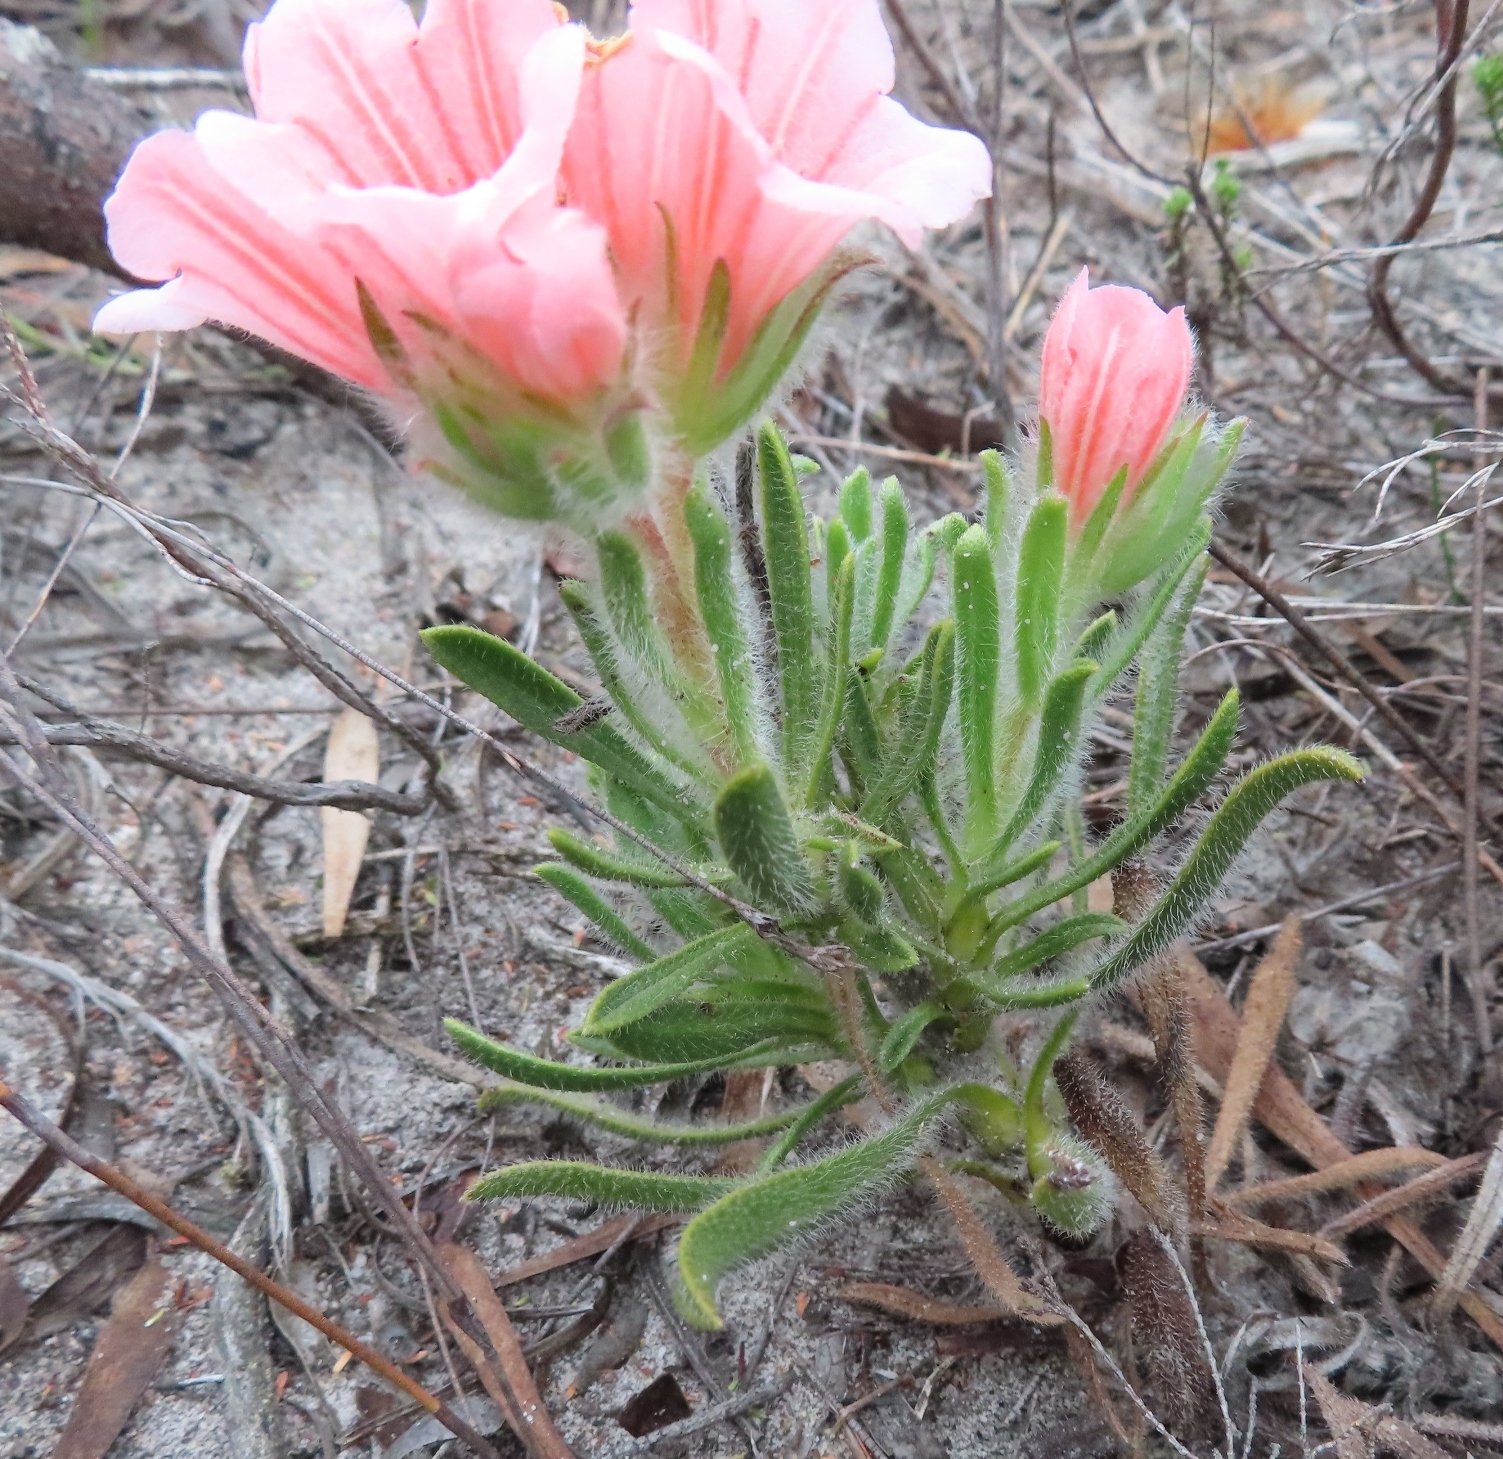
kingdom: Plantae
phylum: Tracheophyta
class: Magnoliopsida
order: Boraginales
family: Boraginaceae
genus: Lobostemon
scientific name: Lobostemon lucidus
